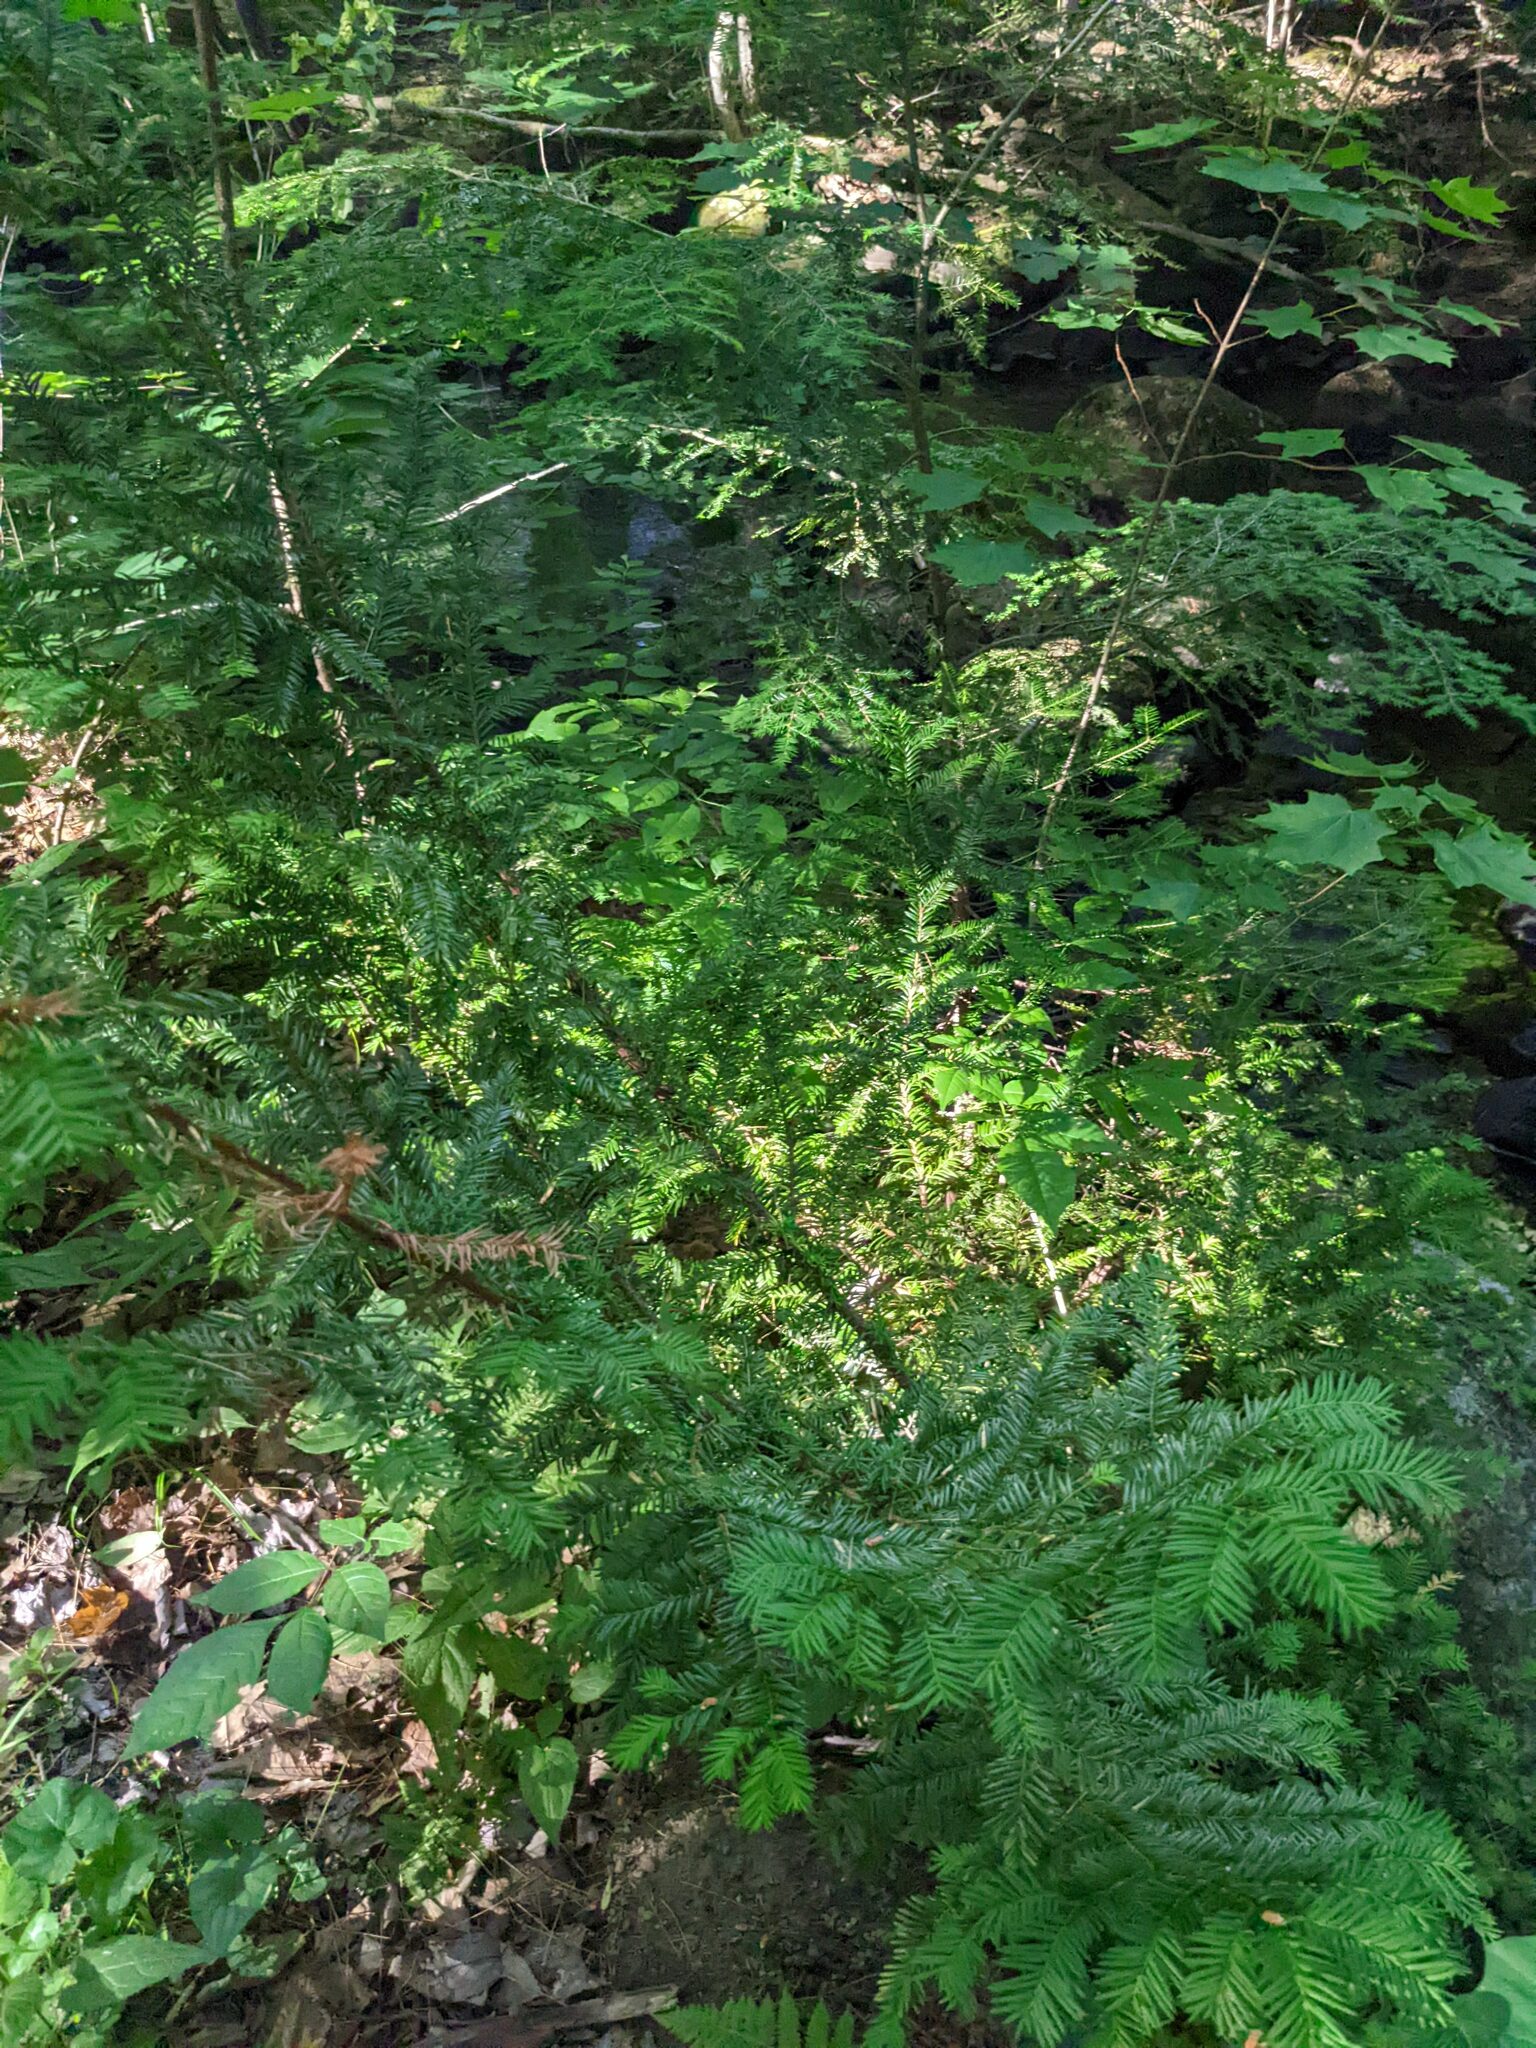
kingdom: Plantae
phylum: Tracheophyta
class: Pinopsida
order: Pinales
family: Taxaceae
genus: Taxus
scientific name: Taxus canadensis
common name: American yew
